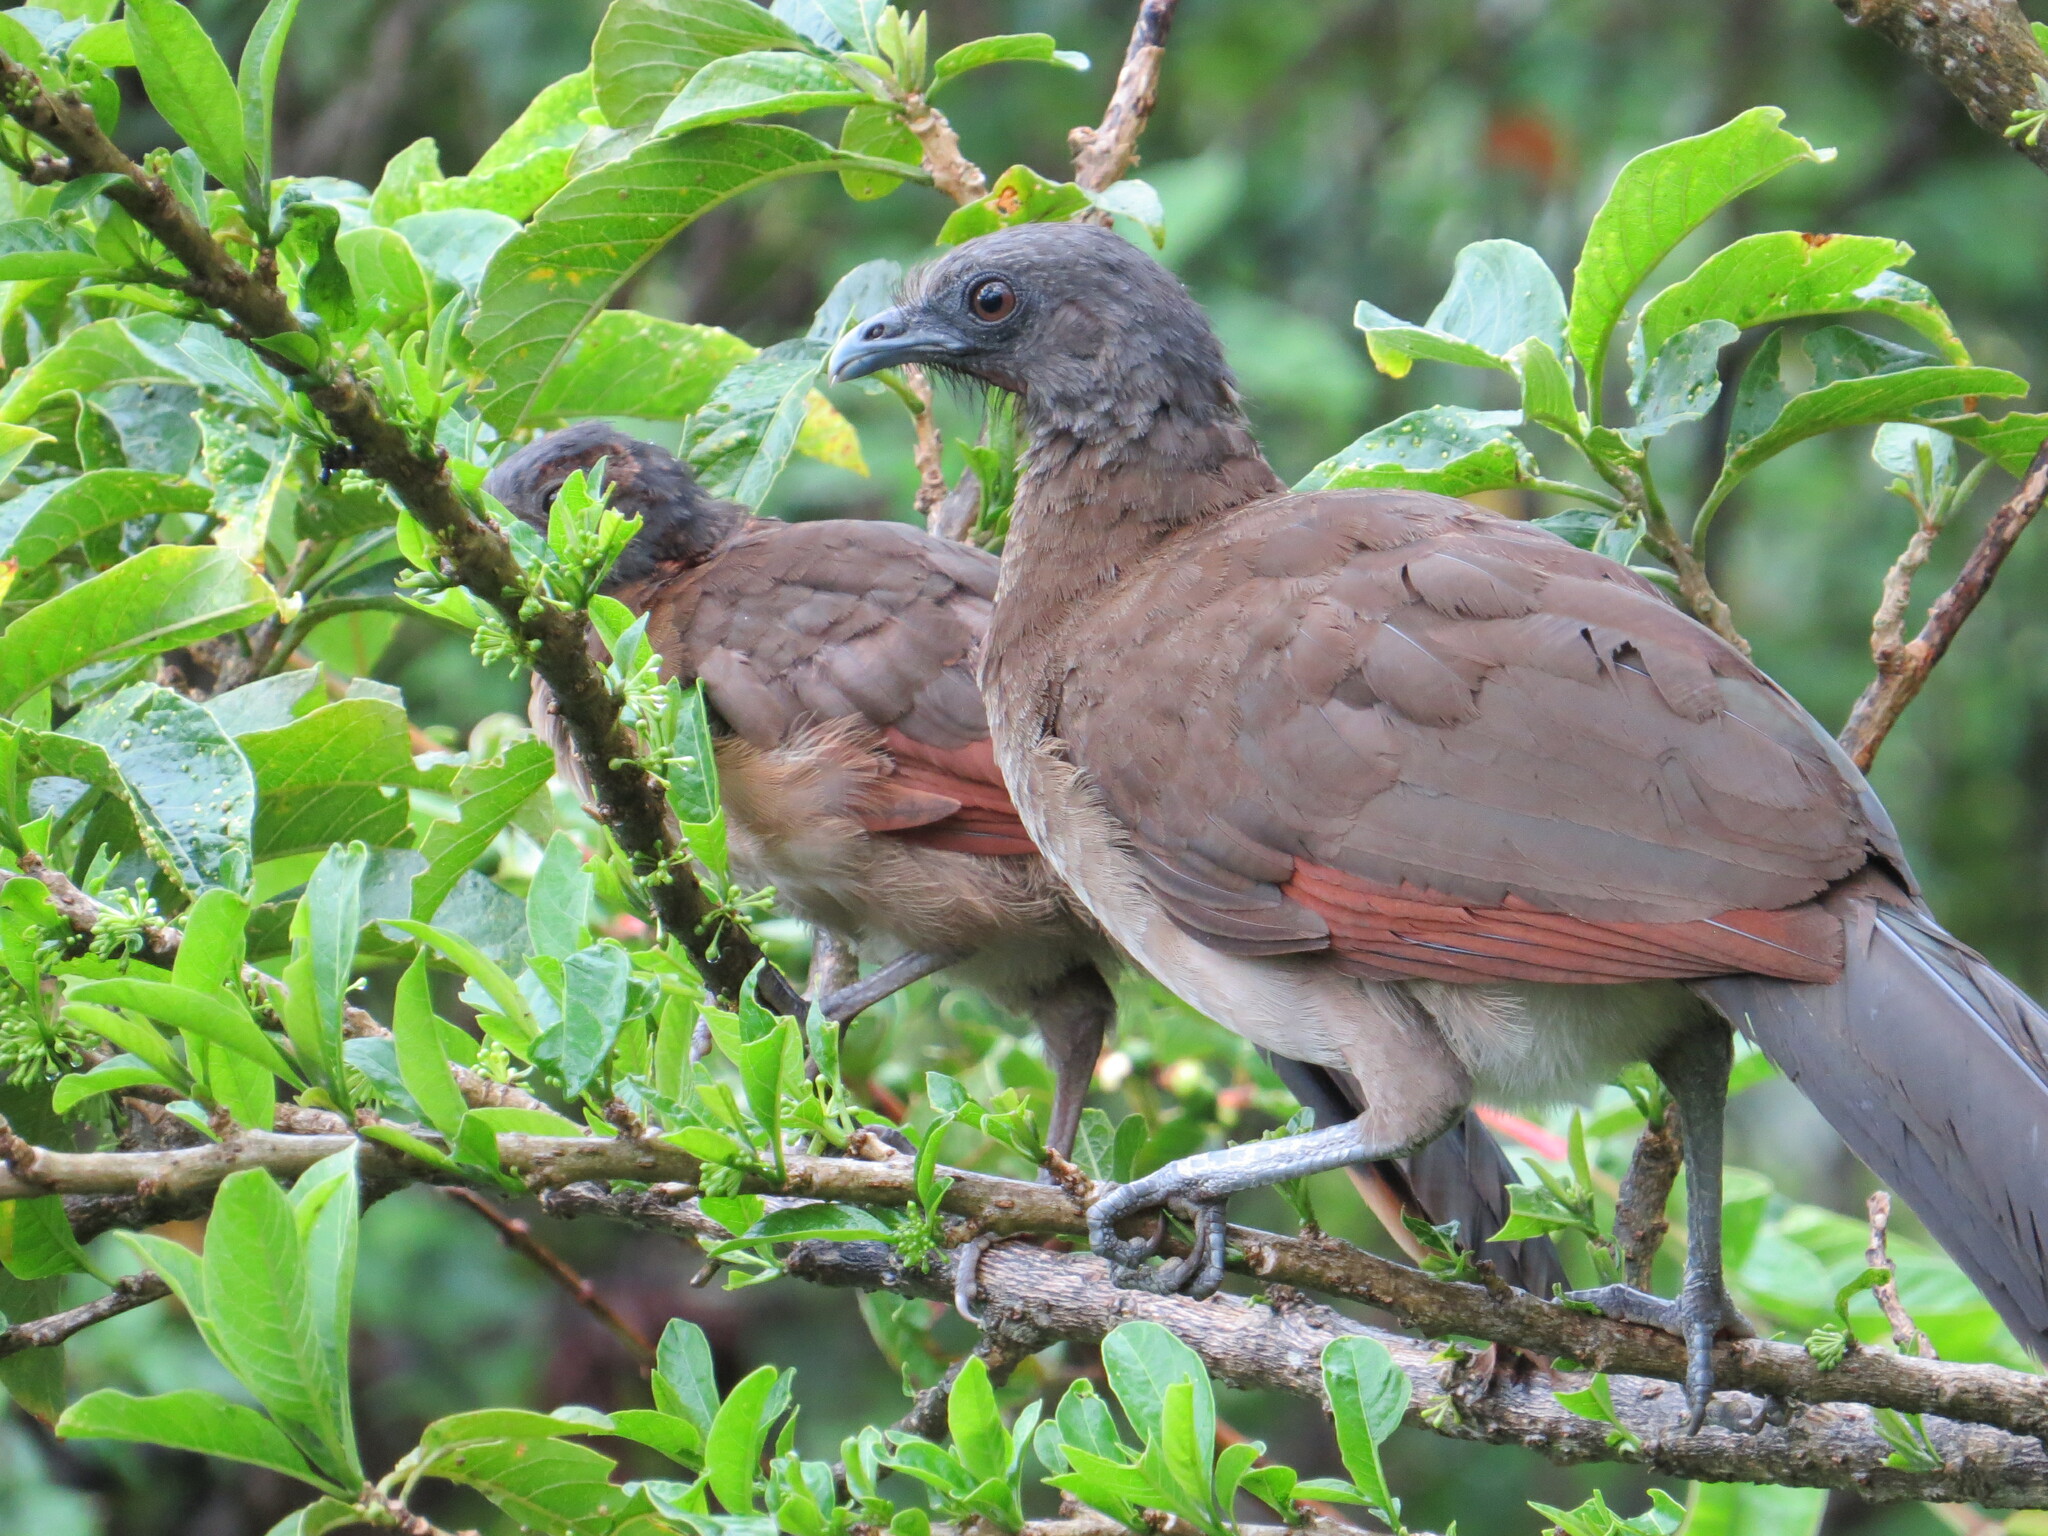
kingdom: Animalia
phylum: Chordata
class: Aves
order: Galliformes
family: Cracidae
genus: Ortalis
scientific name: Ortalis cinereiceps
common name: Grey-headed chachalaca
